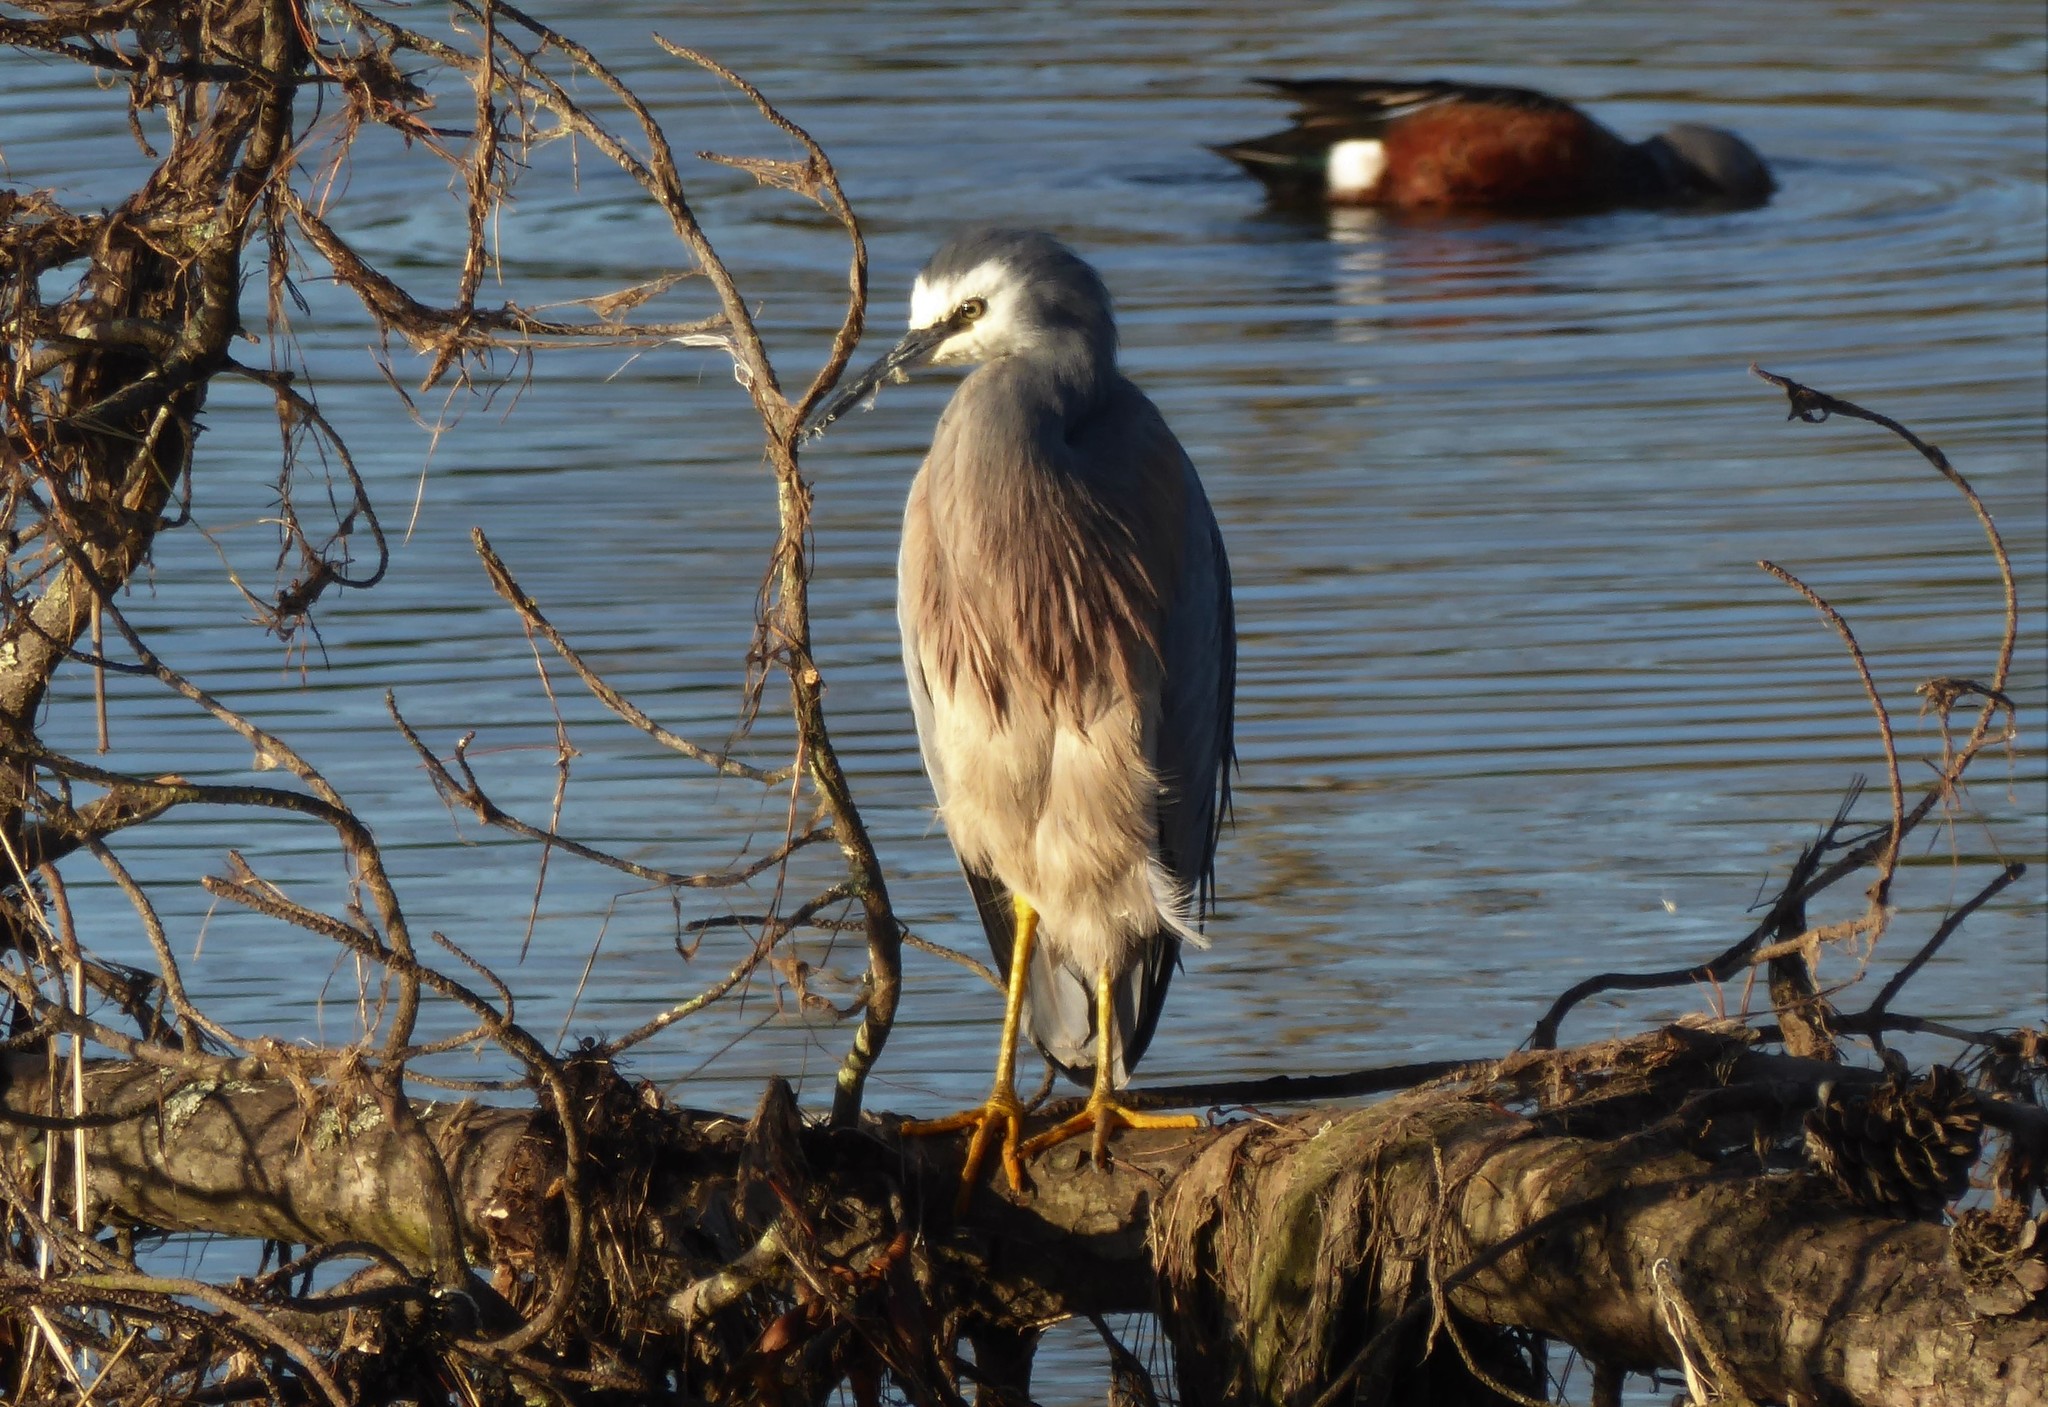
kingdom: Animalia
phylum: Chordata
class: Aves
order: Pelecaniformes
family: Ardeidae
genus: Egretta
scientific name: Egretta novaehollandiae
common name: White-faced heron
